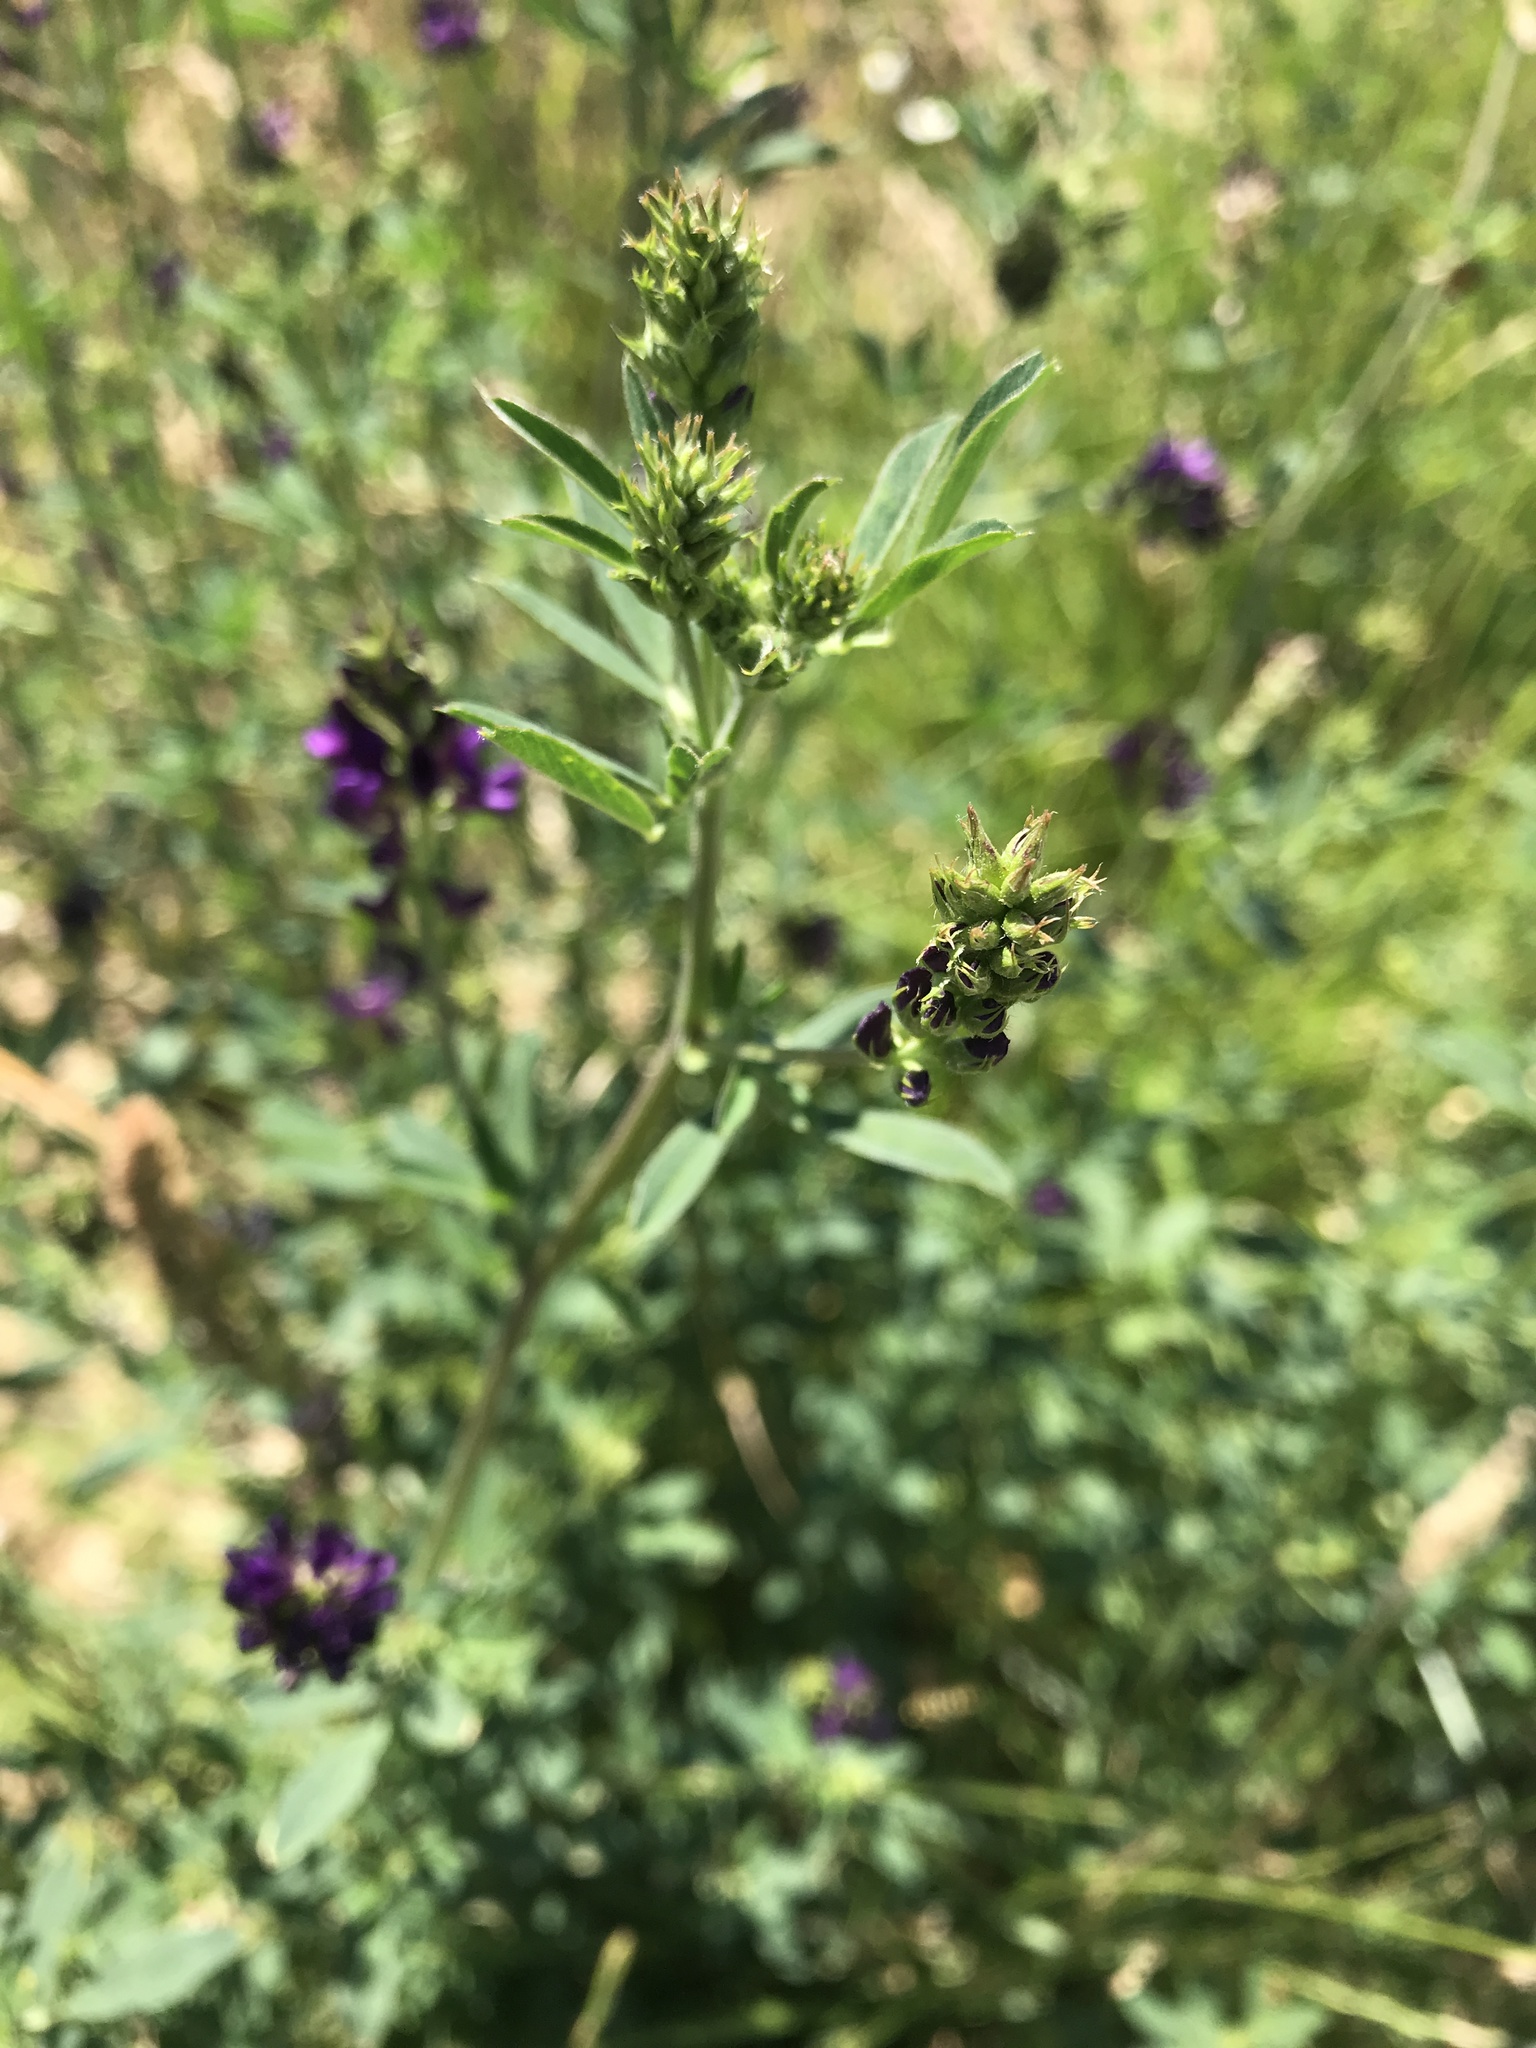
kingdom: Plantae
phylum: Tracheophyta
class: Magnoliopsida
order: Fabales
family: Fabaceae
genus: Medicago
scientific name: Medicago sativa
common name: Alfalfa
